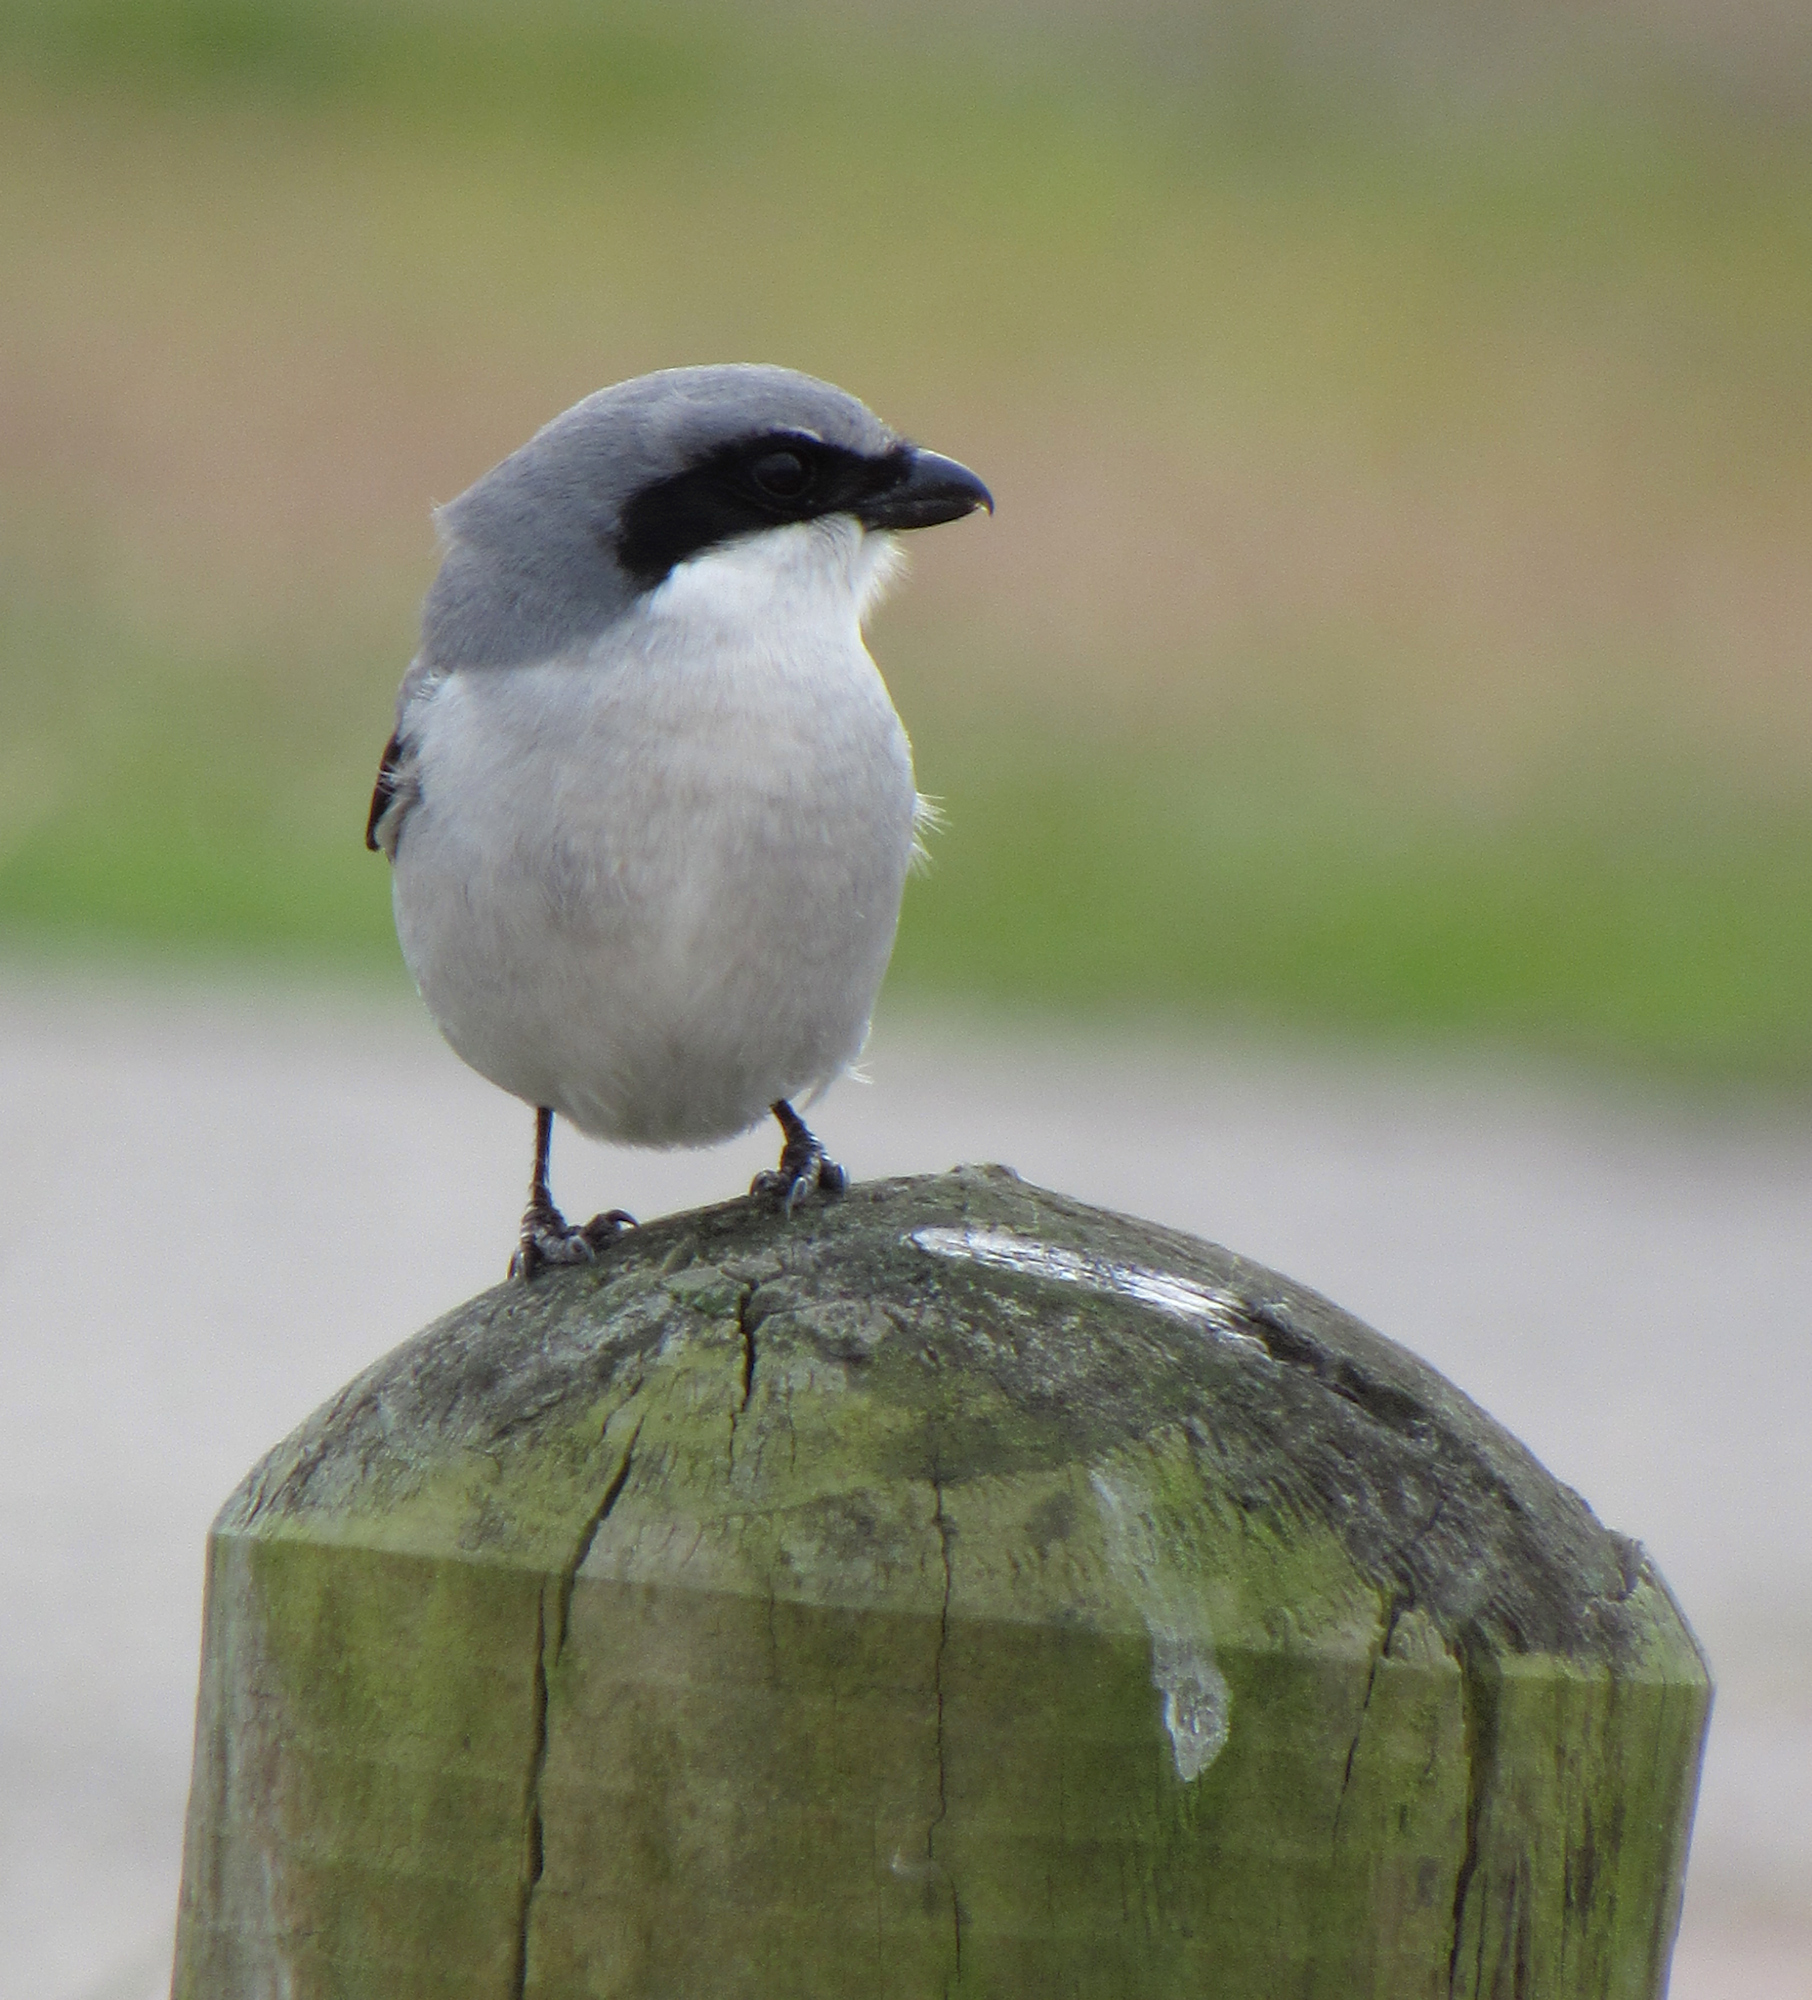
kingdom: Animalia
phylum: Chordata
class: Aves
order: Passeriformes
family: Laniidae
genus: Lanius
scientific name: Lanius ludovicianus
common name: Loggerhead shrike
